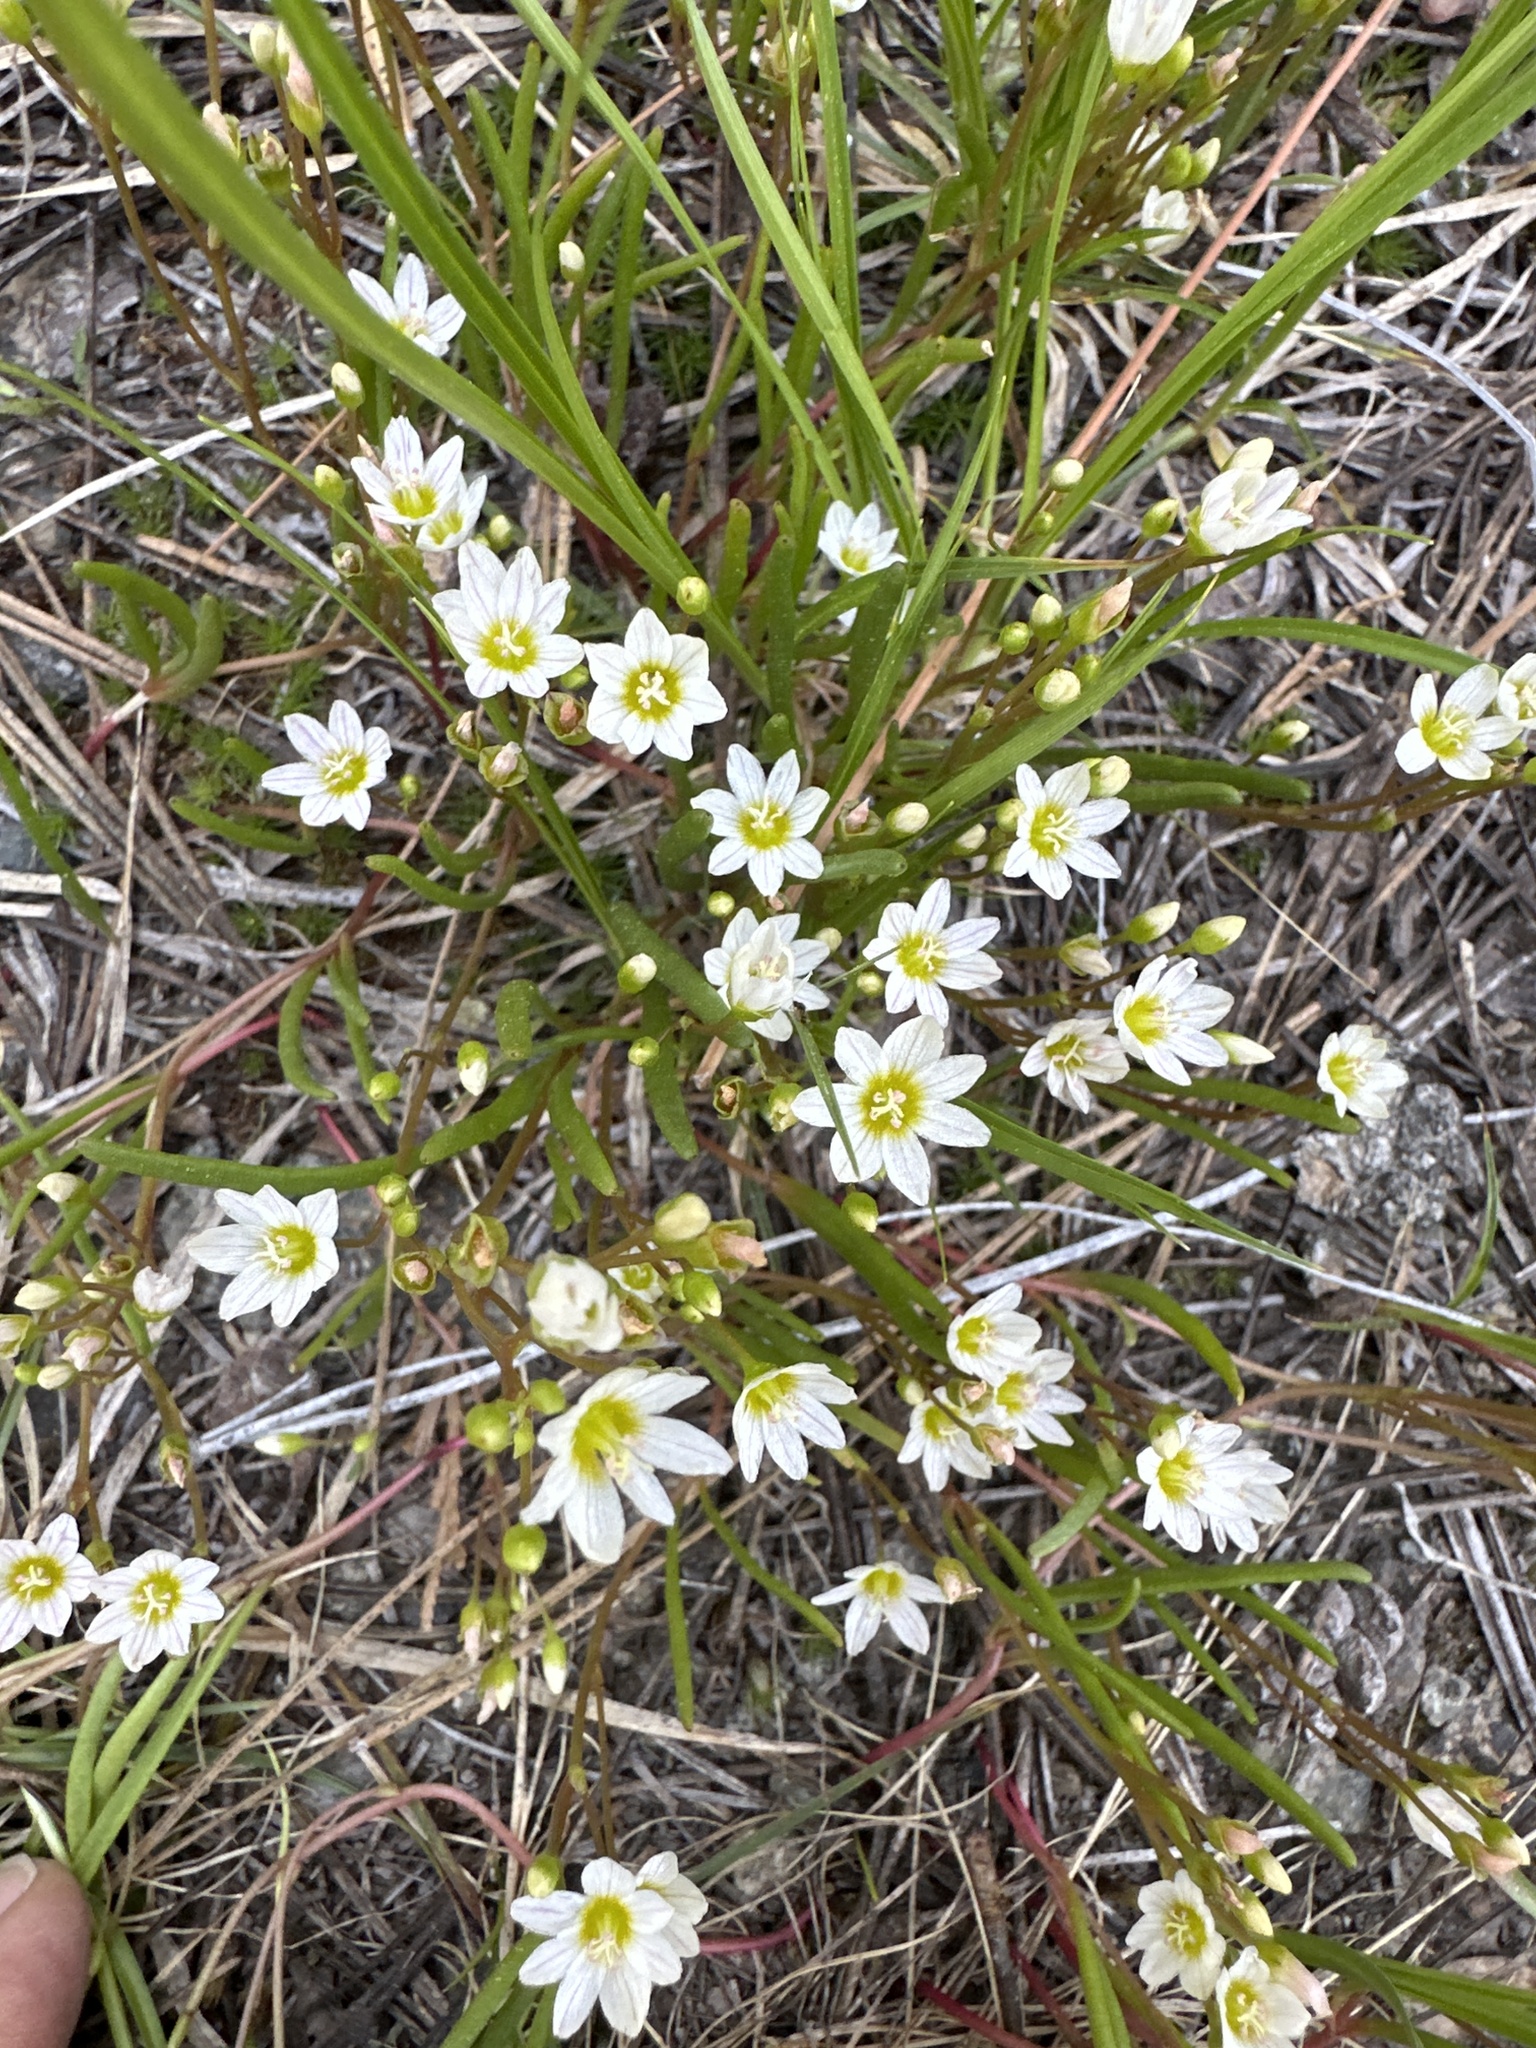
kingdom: Plantae
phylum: Tracheophyta
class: Magnoliopsida
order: Caryophyllales
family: Montiaceae
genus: Lewisia
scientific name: Lewisia triphylla
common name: Three-leaved bitterroot
